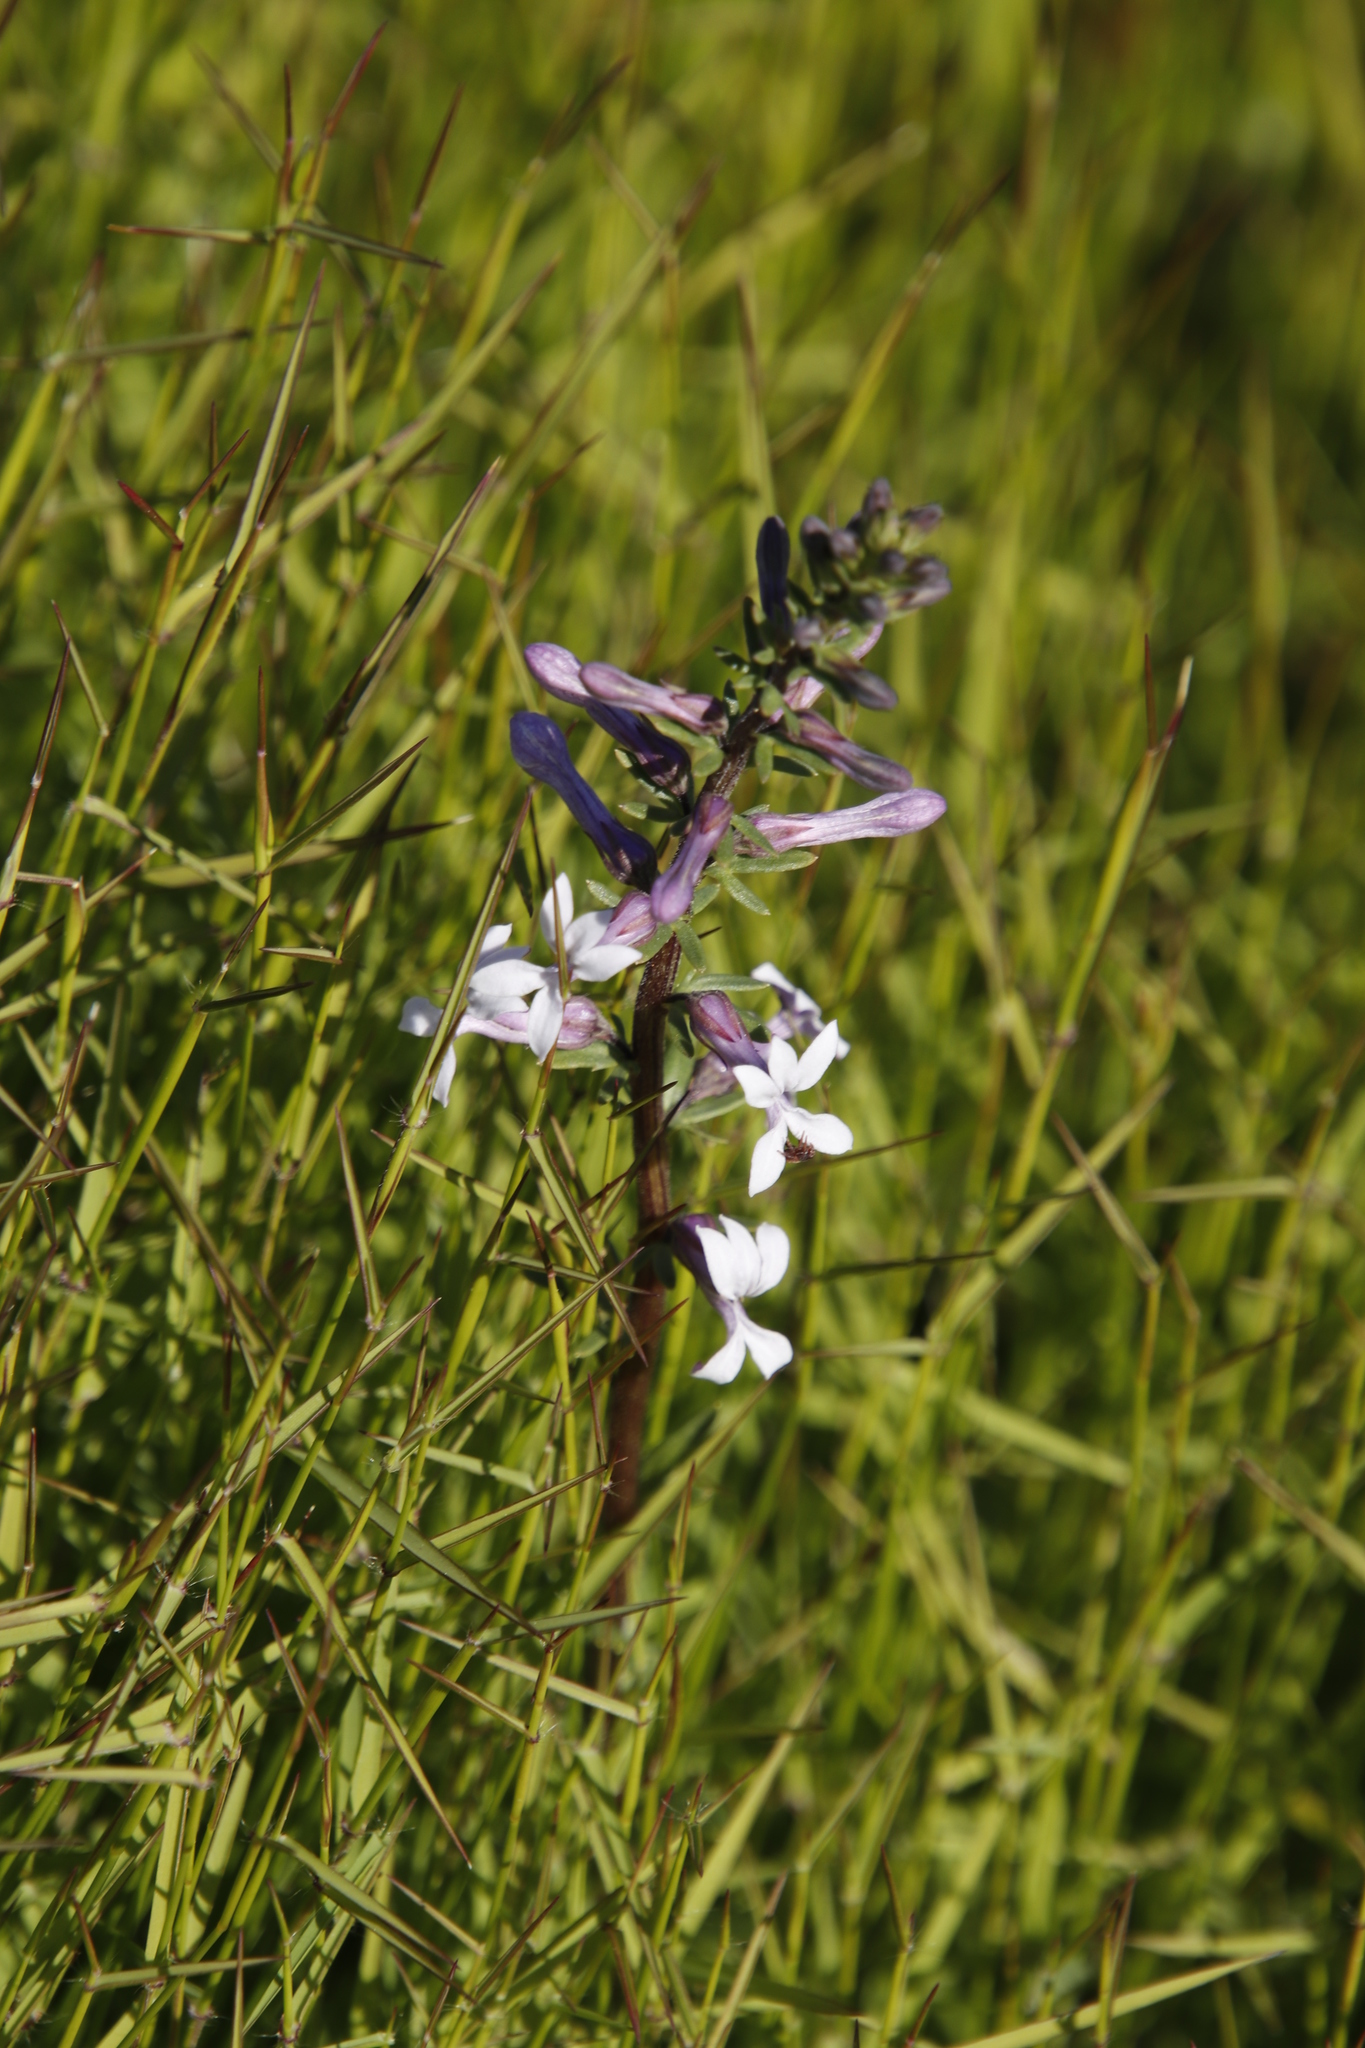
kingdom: Plantae
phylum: Tracheophyta
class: Magnoliopsida
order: Asterales
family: Campanulaceae
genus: Cyphia
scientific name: Cyphia bulbosa
